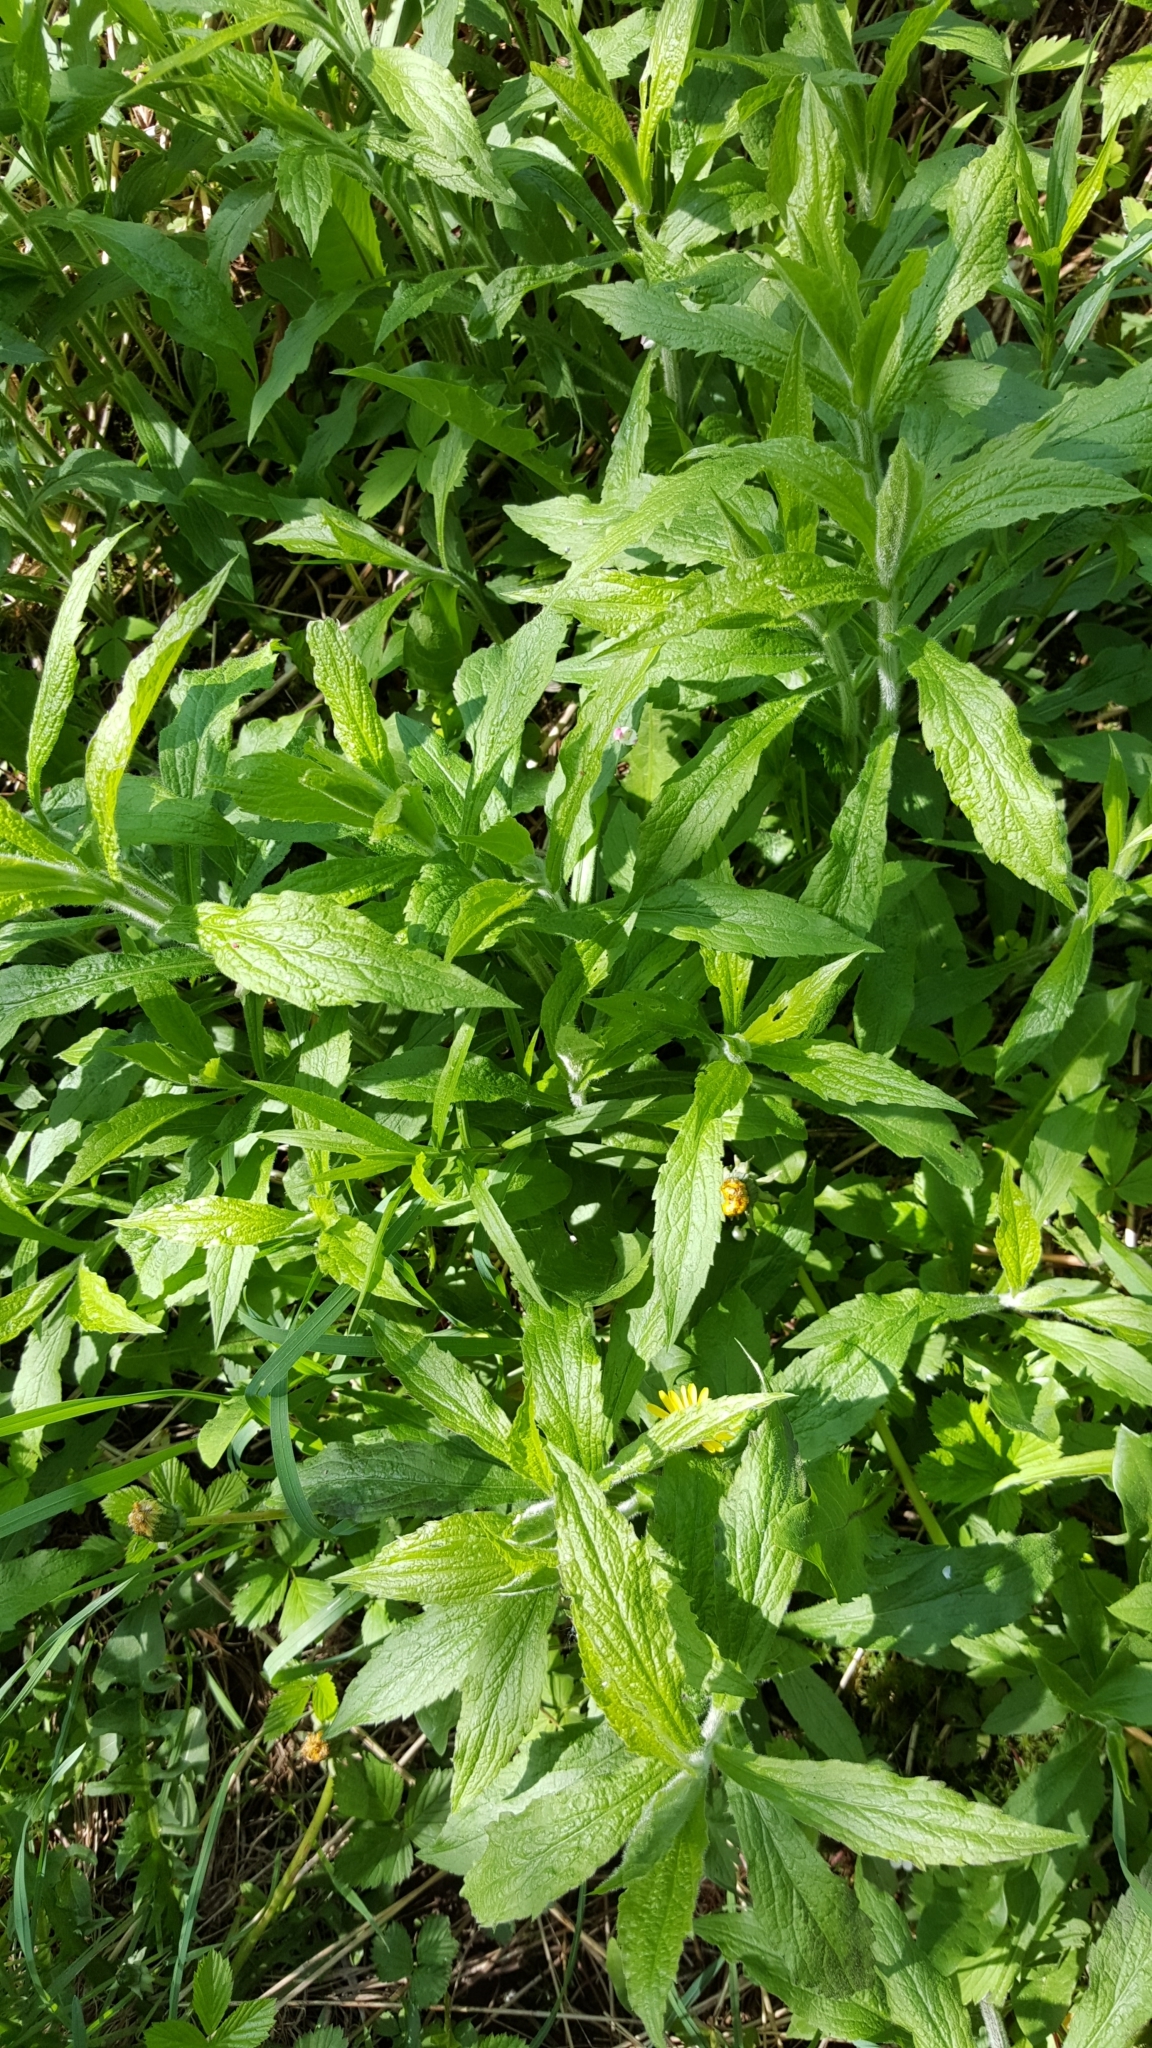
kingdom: Plantae
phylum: Tracheophyta
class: Magnoliopsida
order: Asterales
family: Asteraceae
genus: Solidago
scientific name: Solidago rugosa
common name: Rough-stemmed goldenrod
